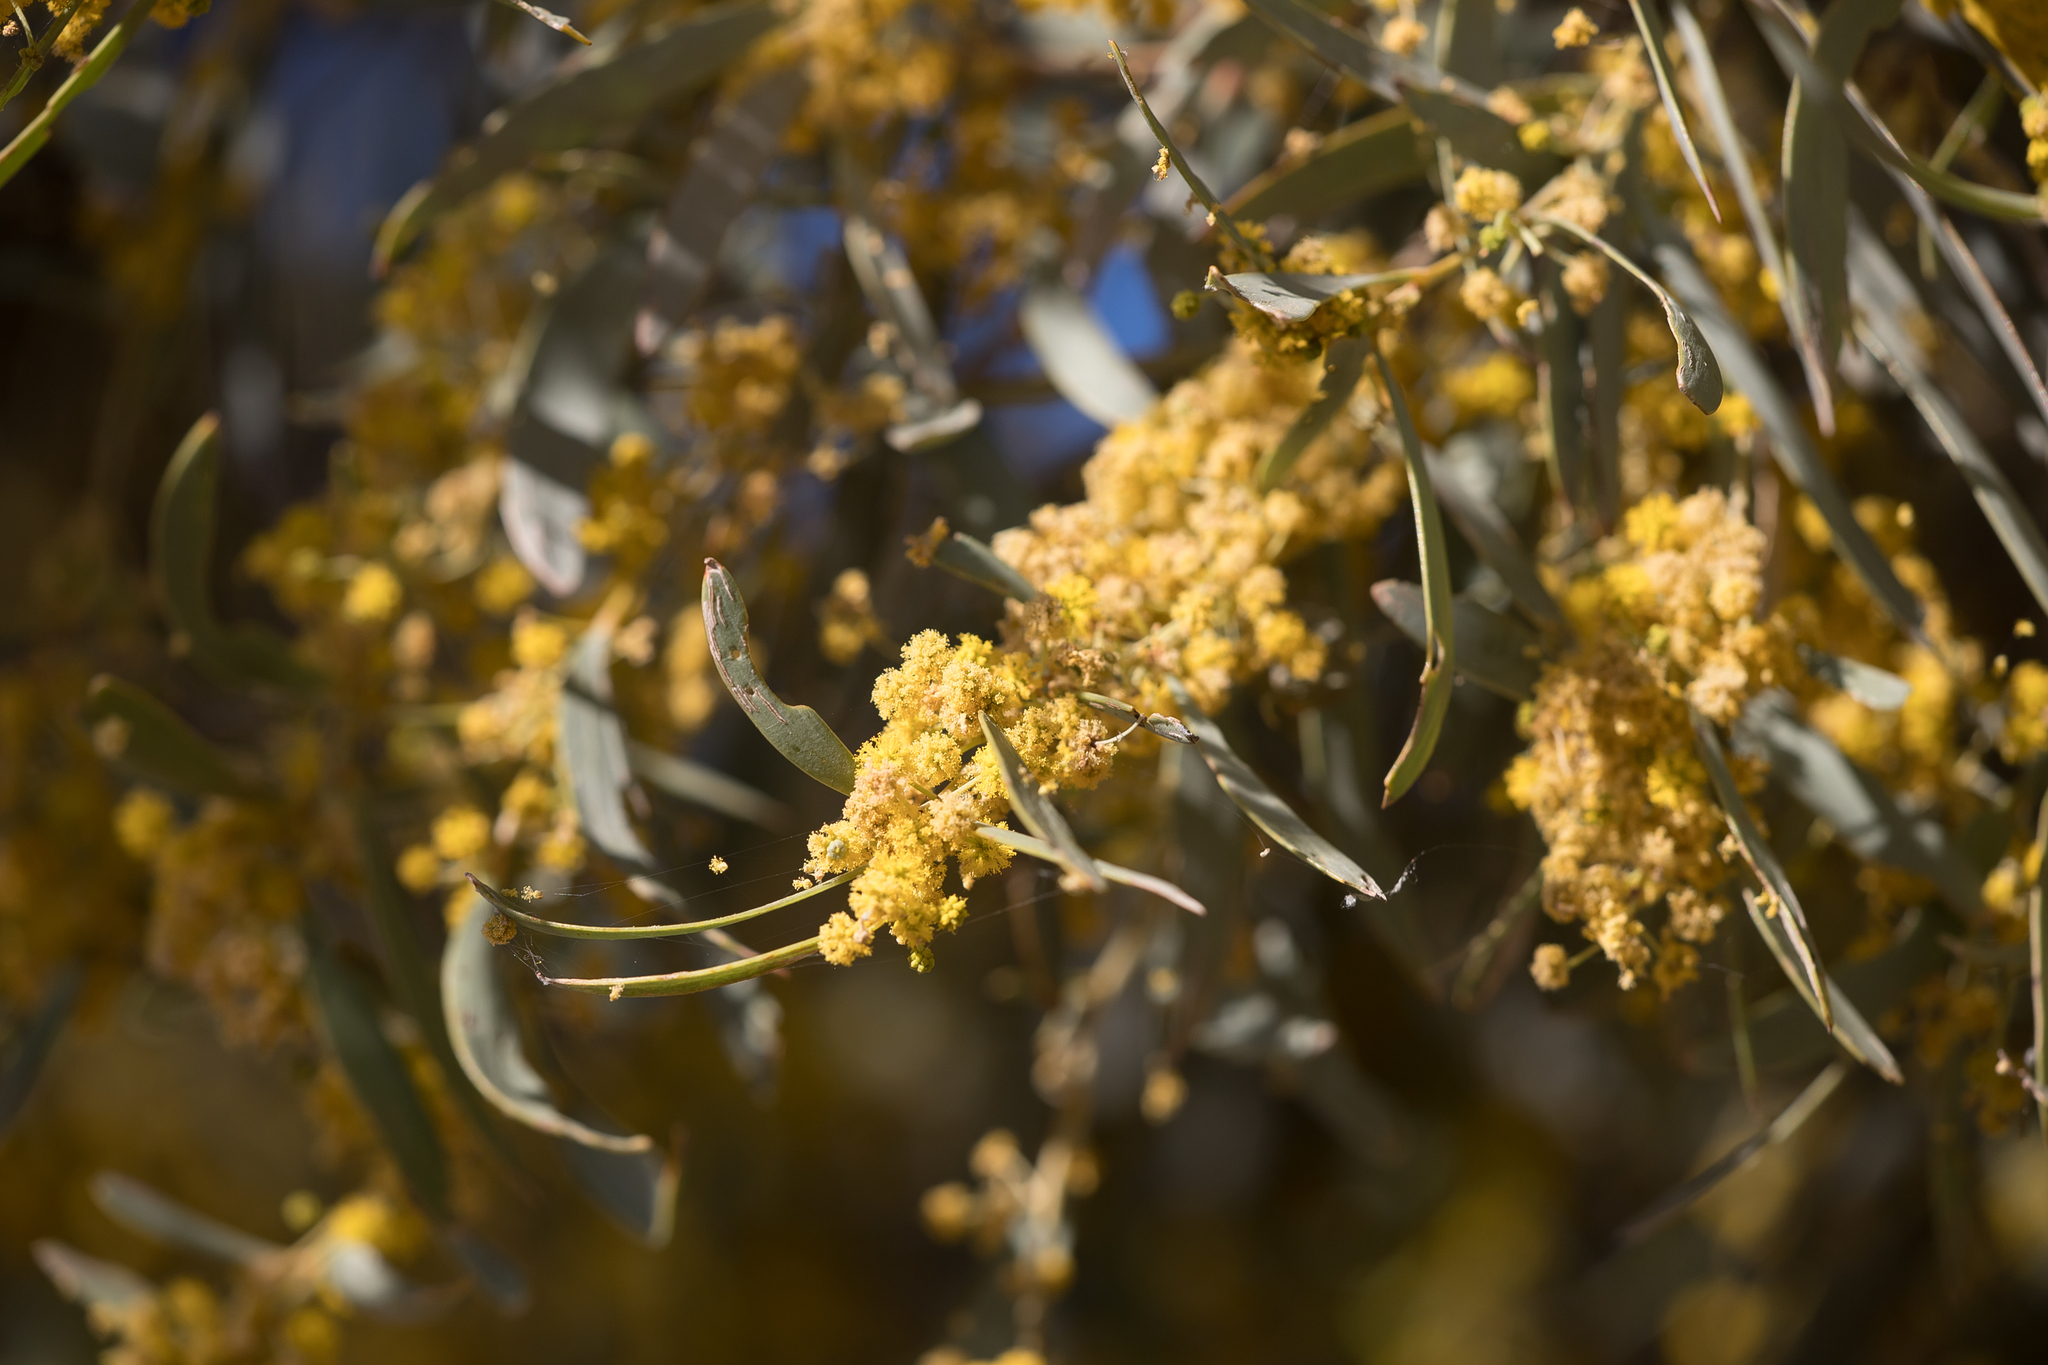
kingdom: Plantae
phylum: Tracheophyta
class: Magnoliopsida
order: Fabales
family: Fabaceae
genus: Acacia
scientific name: Acacia cambagei
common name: Gidgee
